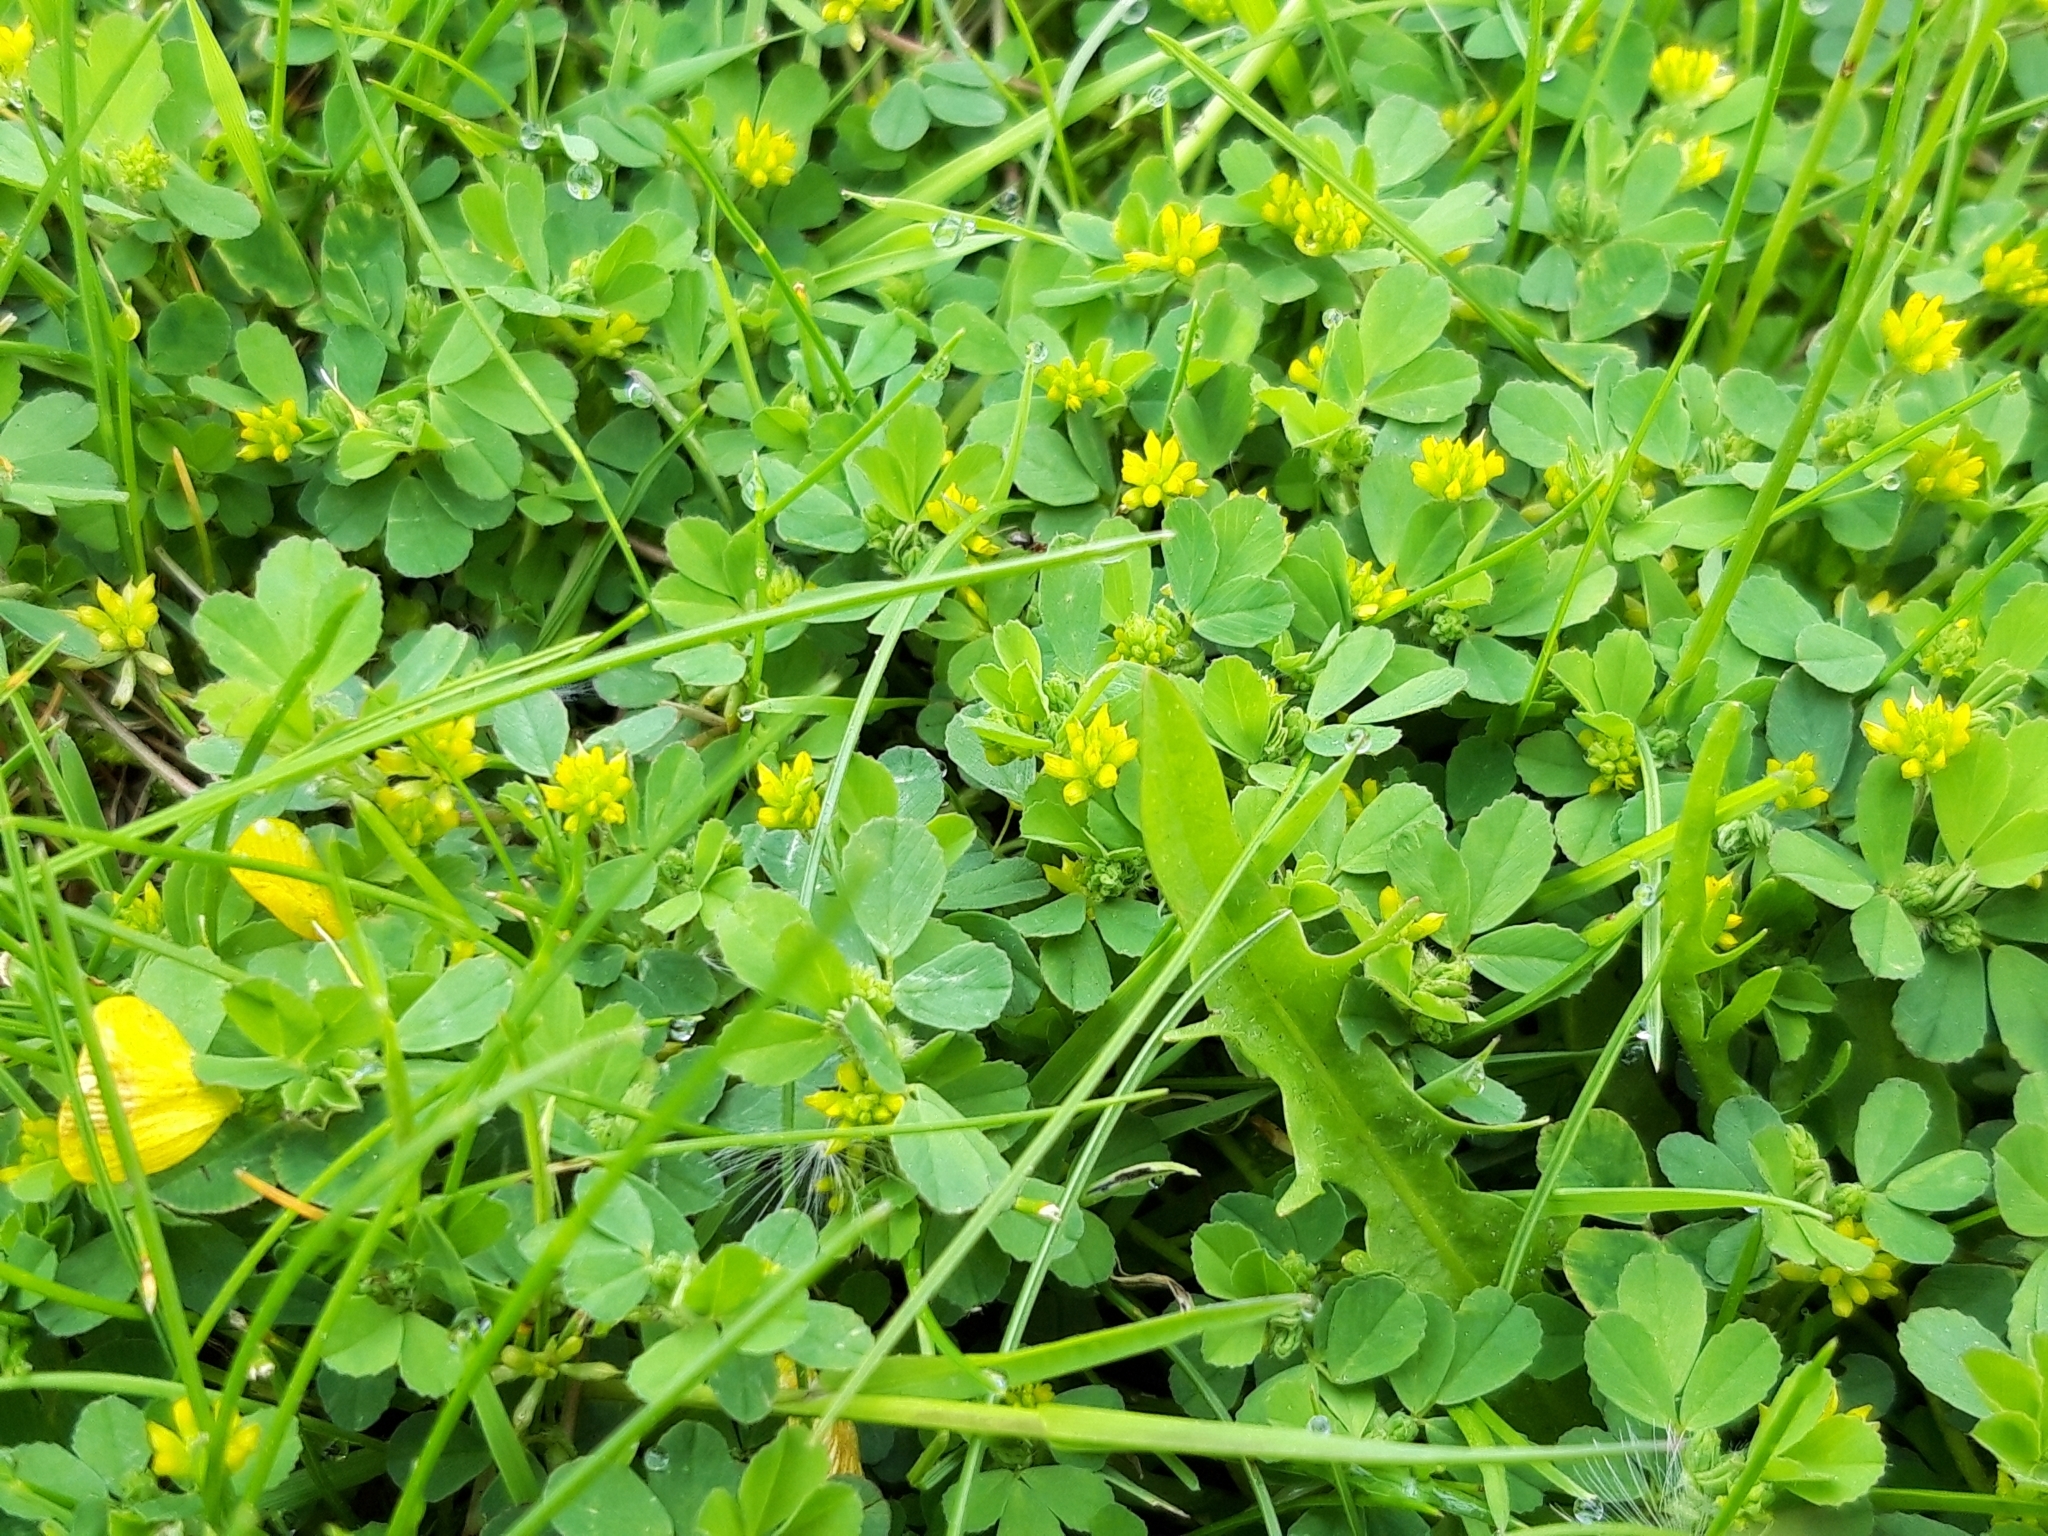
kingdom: Plantae
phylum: Tracheophyta
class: Magnoliopsida
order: Fabales
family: Fabaceae
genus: Trifolium
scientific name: Trifolium dubium
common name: Suckling clover
